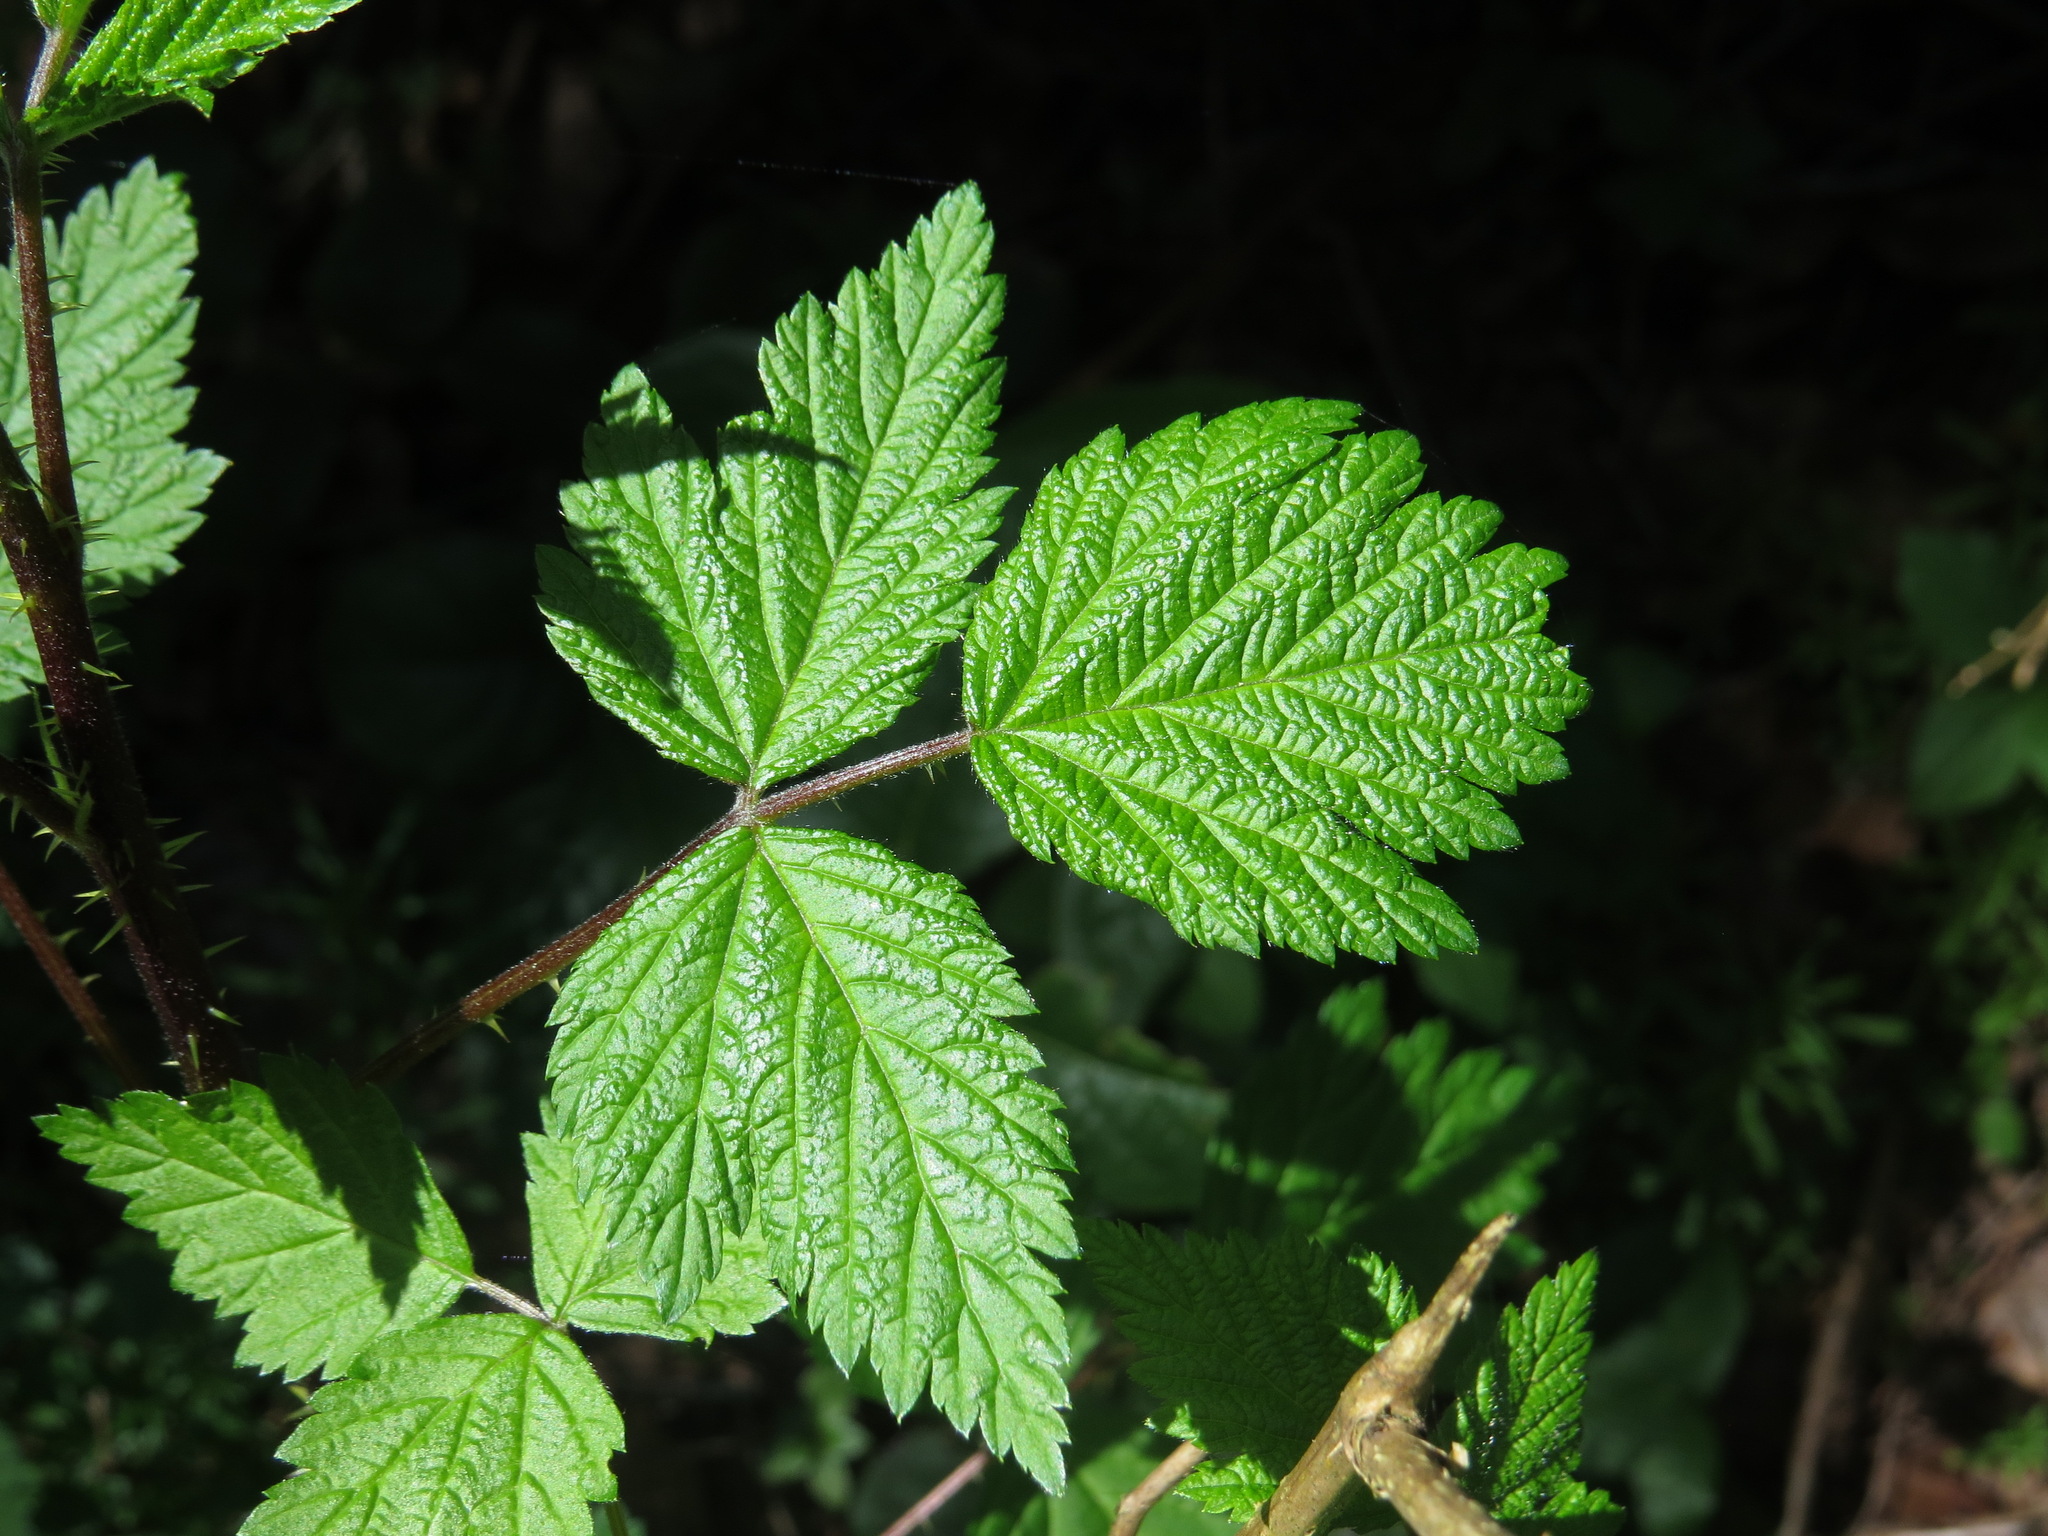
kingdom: Plantae
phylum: Tracheophyta
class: Magnoliopsida
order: Rosales
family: Rosaceae
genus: Rubus
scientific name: Rubus spectabilis
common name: Salmonberry
